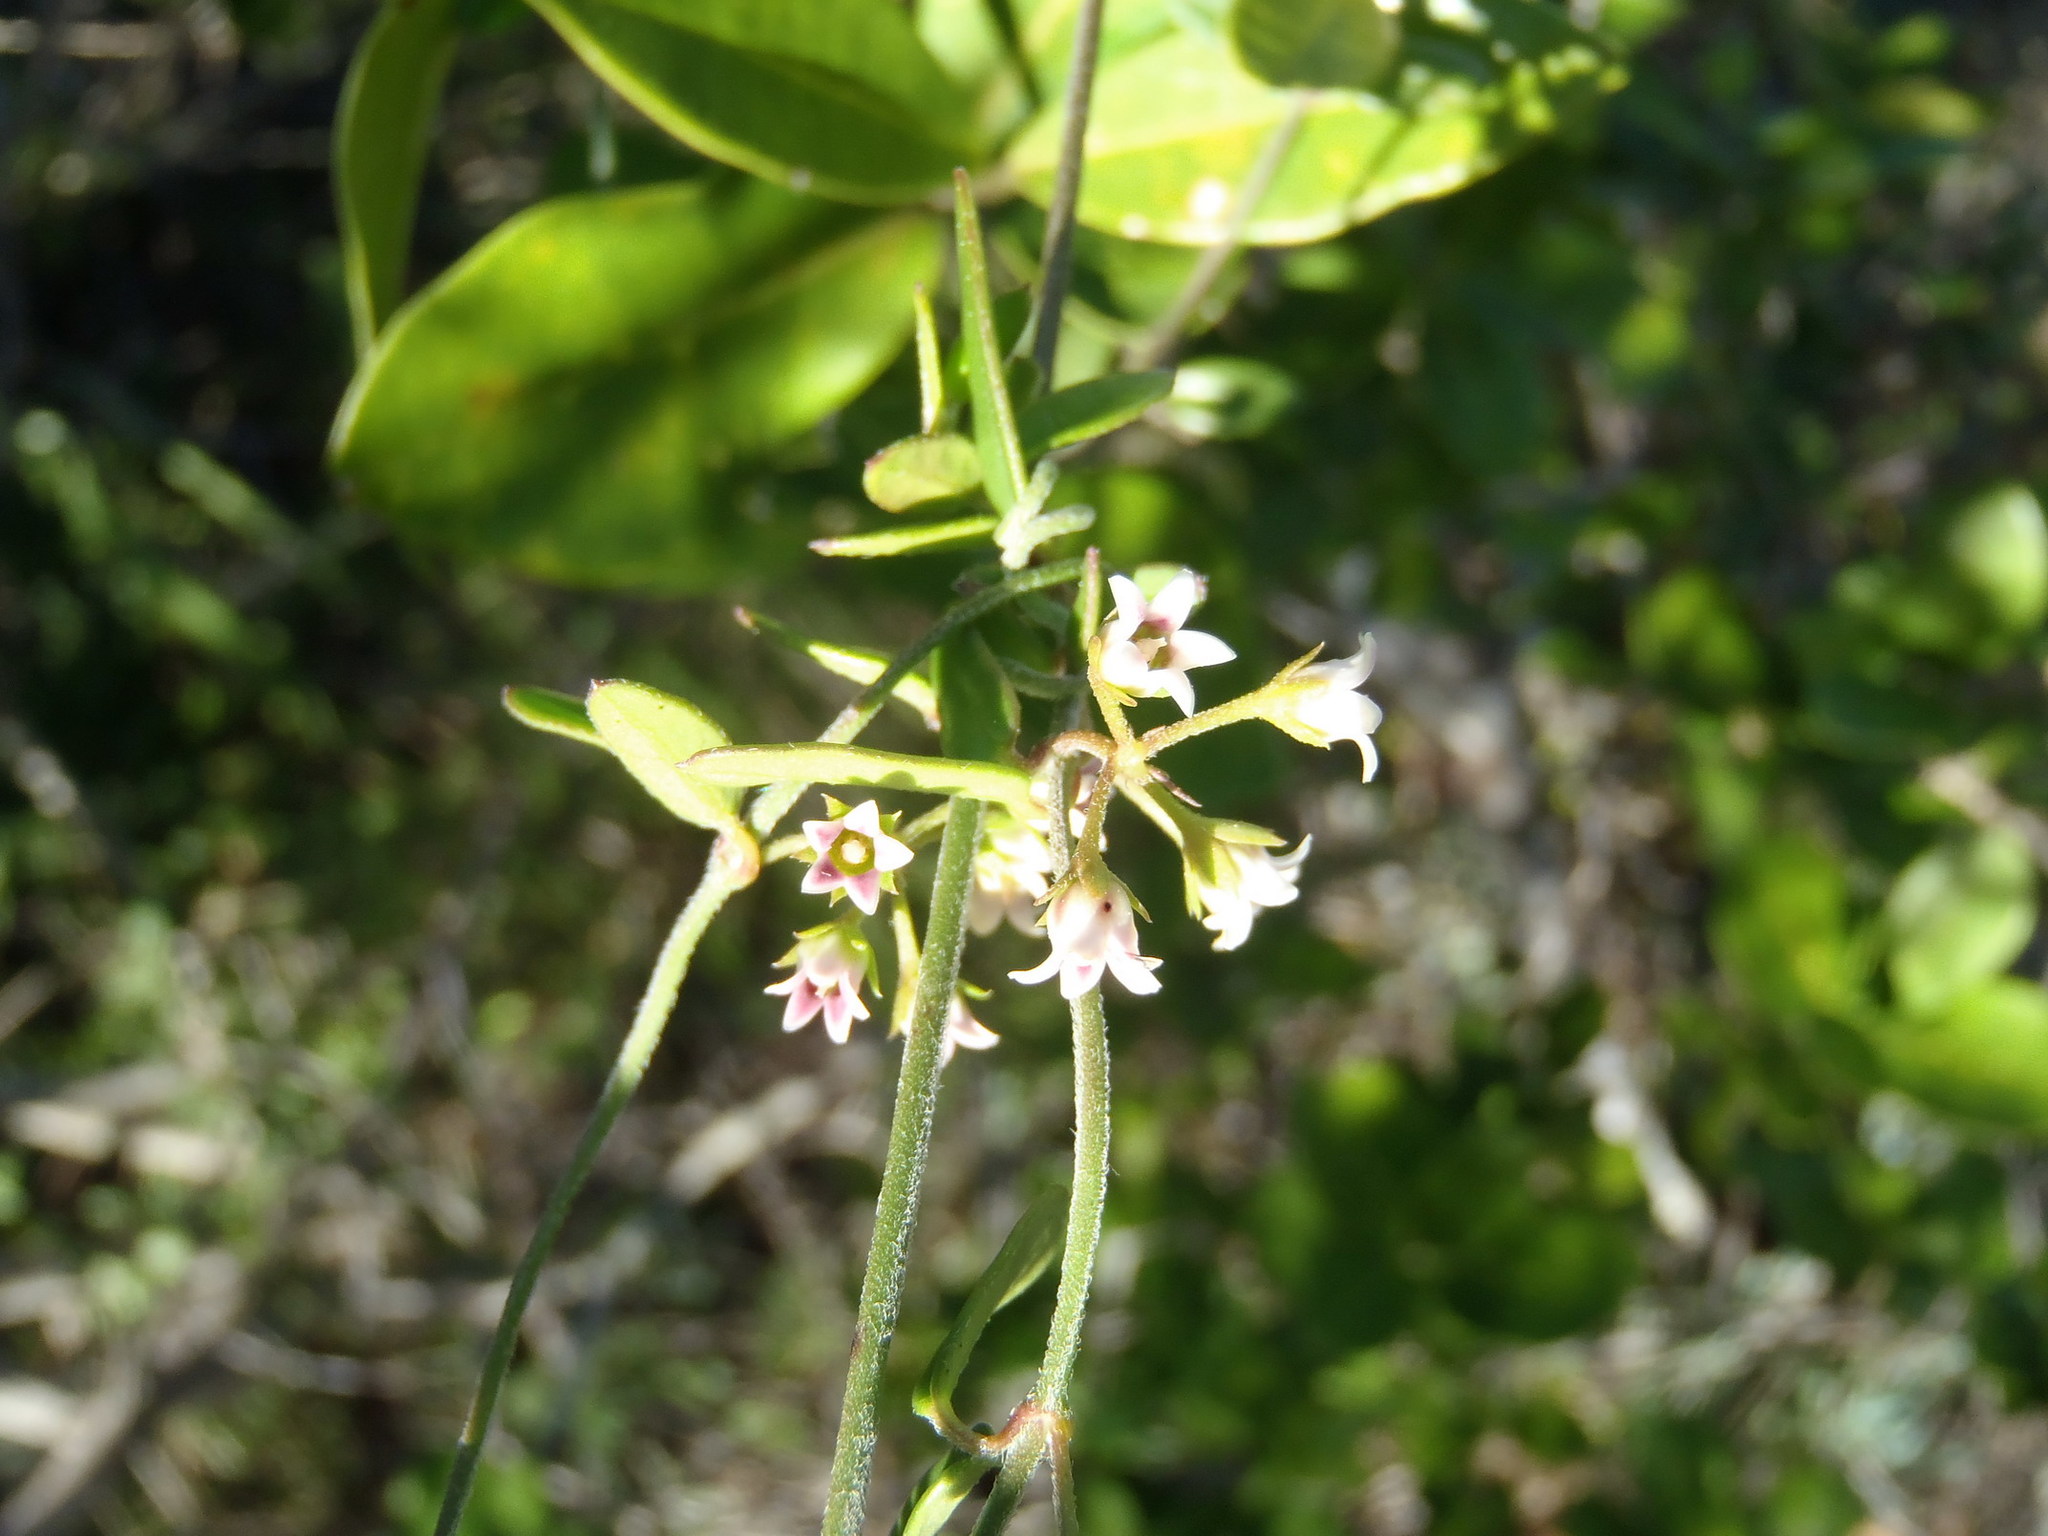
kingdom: Plantae
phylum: Tracheophyta
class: Magnoliopsida
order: Gentianales
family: Apocynaceae
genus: Astephanus
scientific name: Astephanus triflorus
